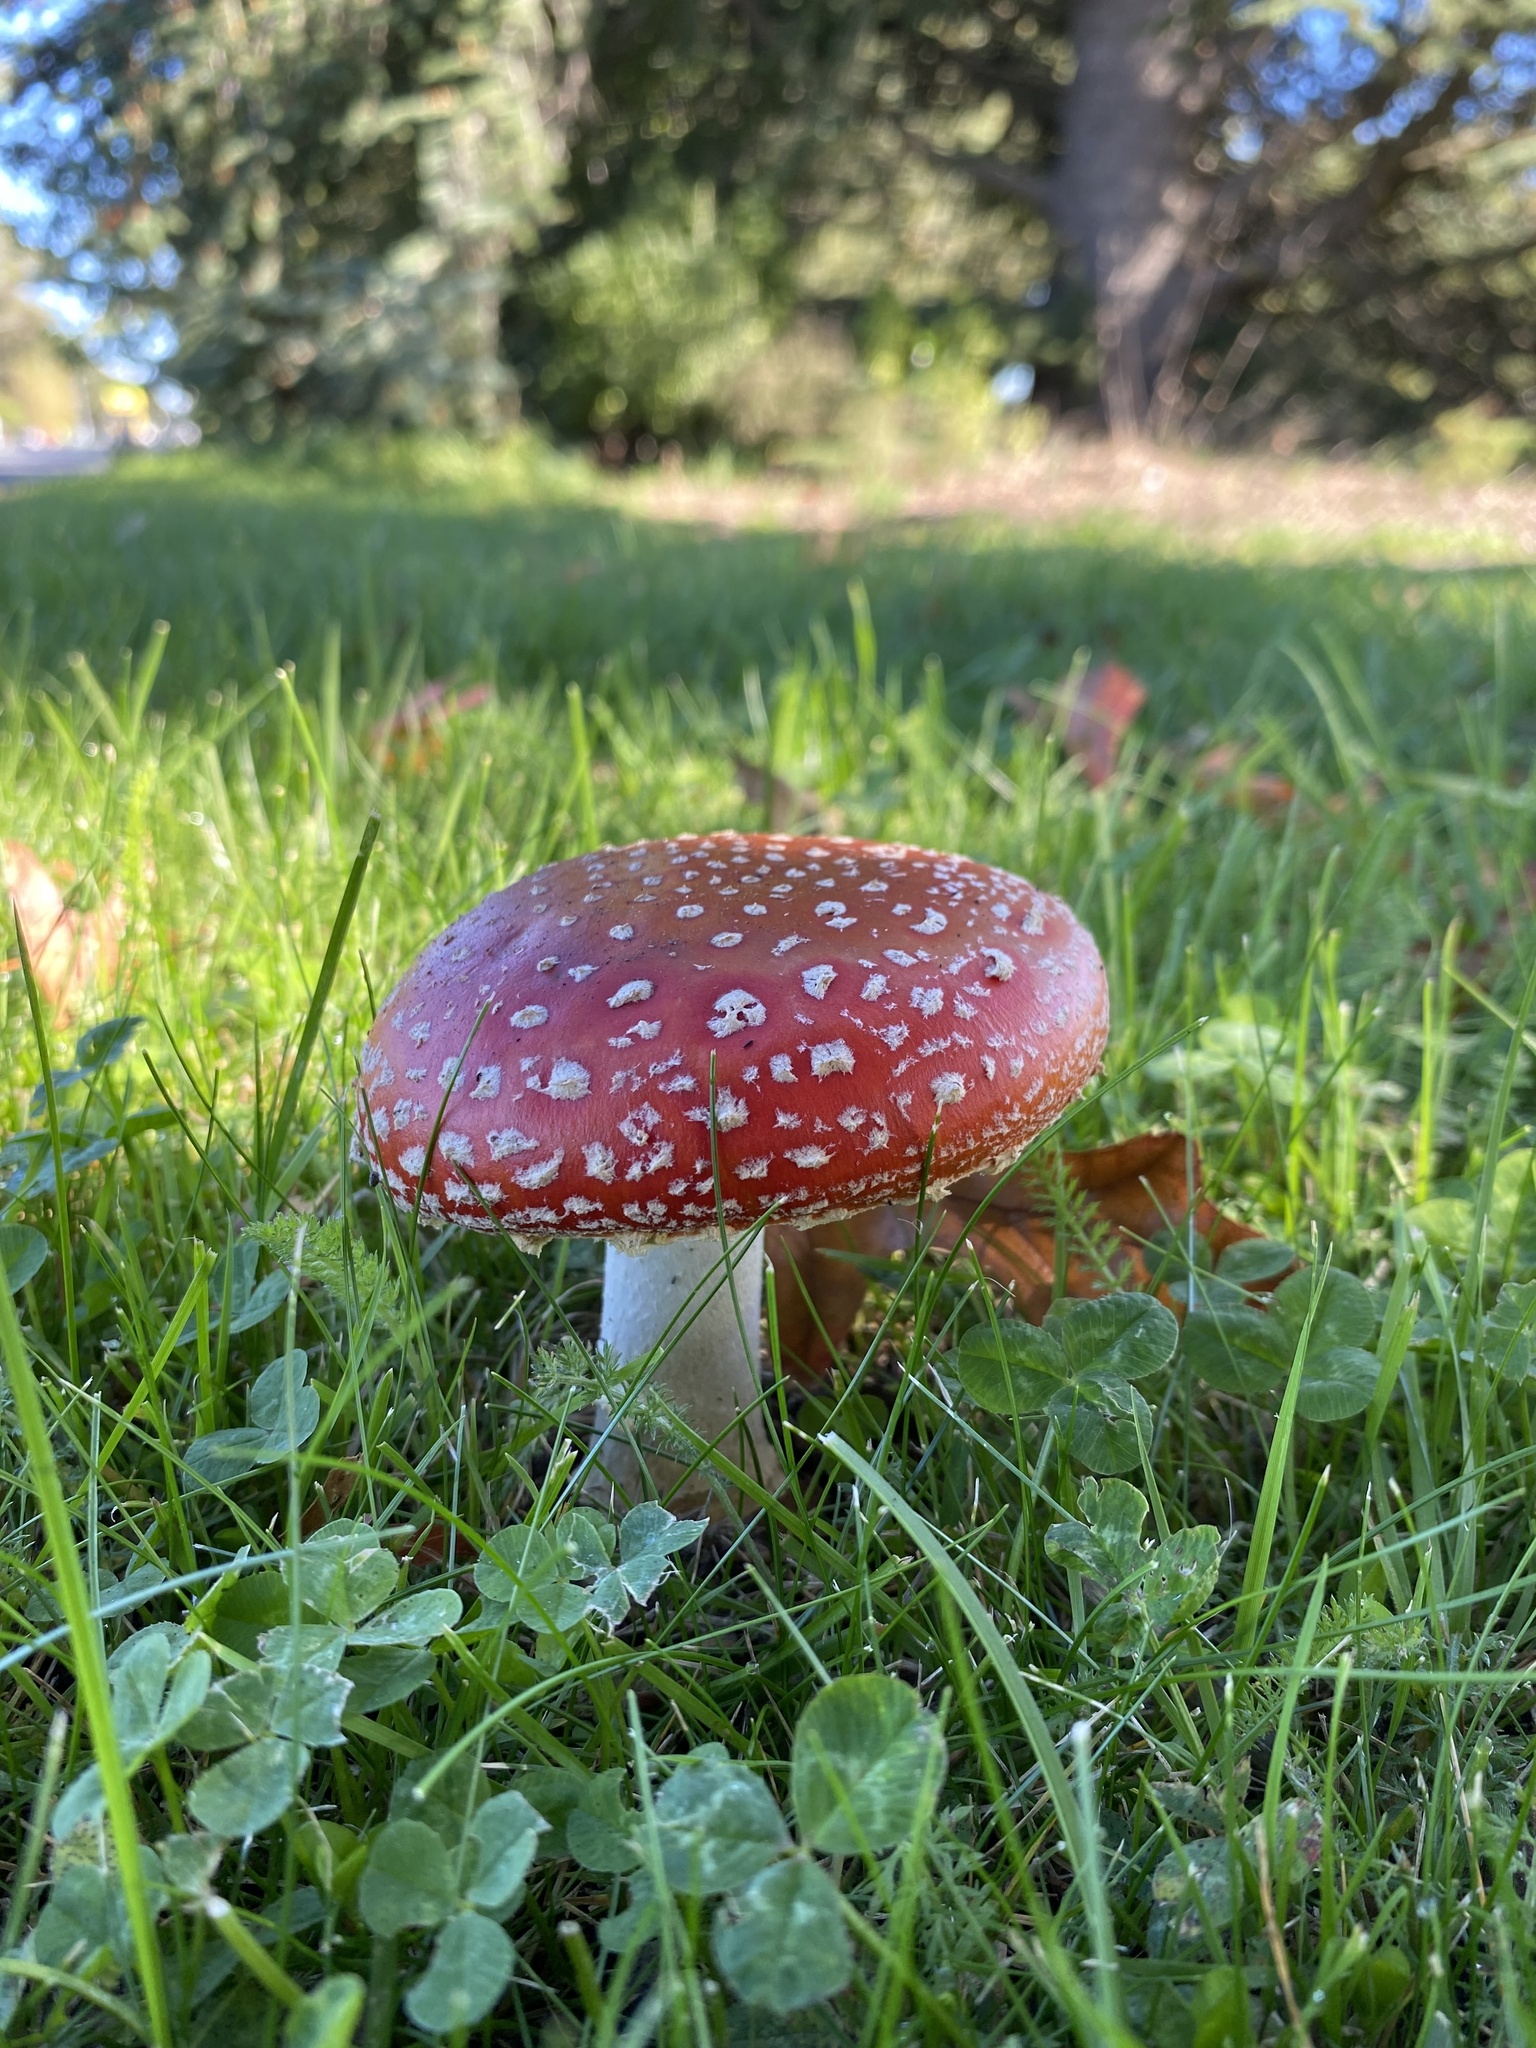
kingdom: Fungi
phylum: Basidiomycota
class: Agaricomycetes
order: Agaricales
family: Amanitaceae
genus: Amanita
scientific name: Amanita muscaria
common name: Fly agaric
